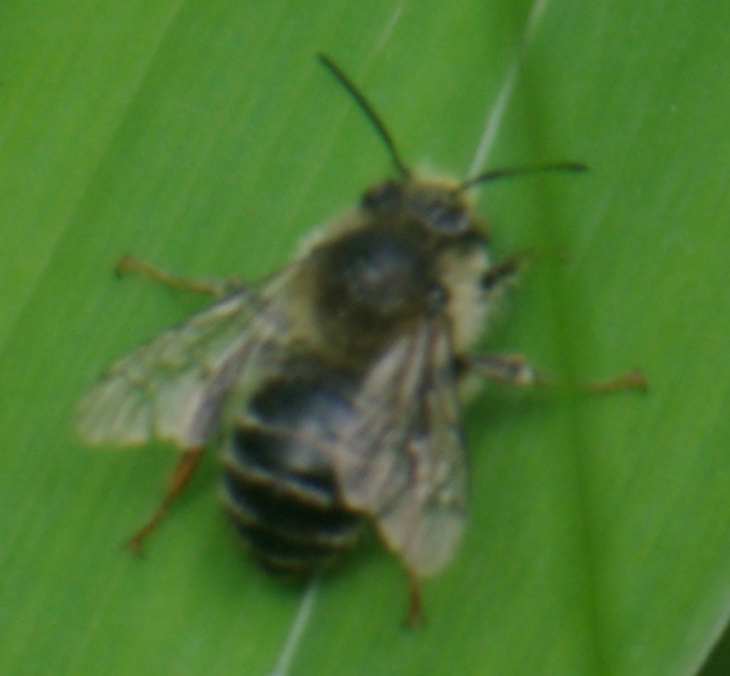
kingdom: Animalia
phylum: Arthropoda
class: Insecta
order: Hymenoptera
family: Apidae
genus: Anthophora
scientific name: Anthophora terminalis
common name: Orange-tipped wood-digger bee
